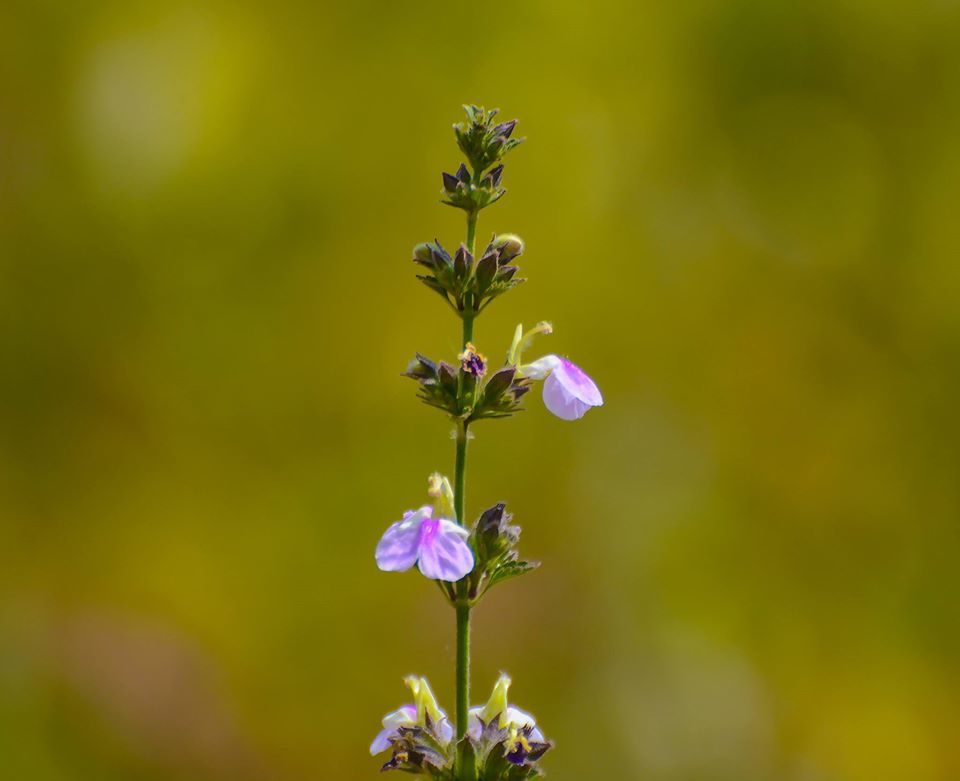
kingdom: Plantae
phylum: Tracheophyta
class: Magnoliopsida
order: Lamiales
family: Lamiaceae
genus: Anisomeles
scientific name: Anisomeles heyneana
